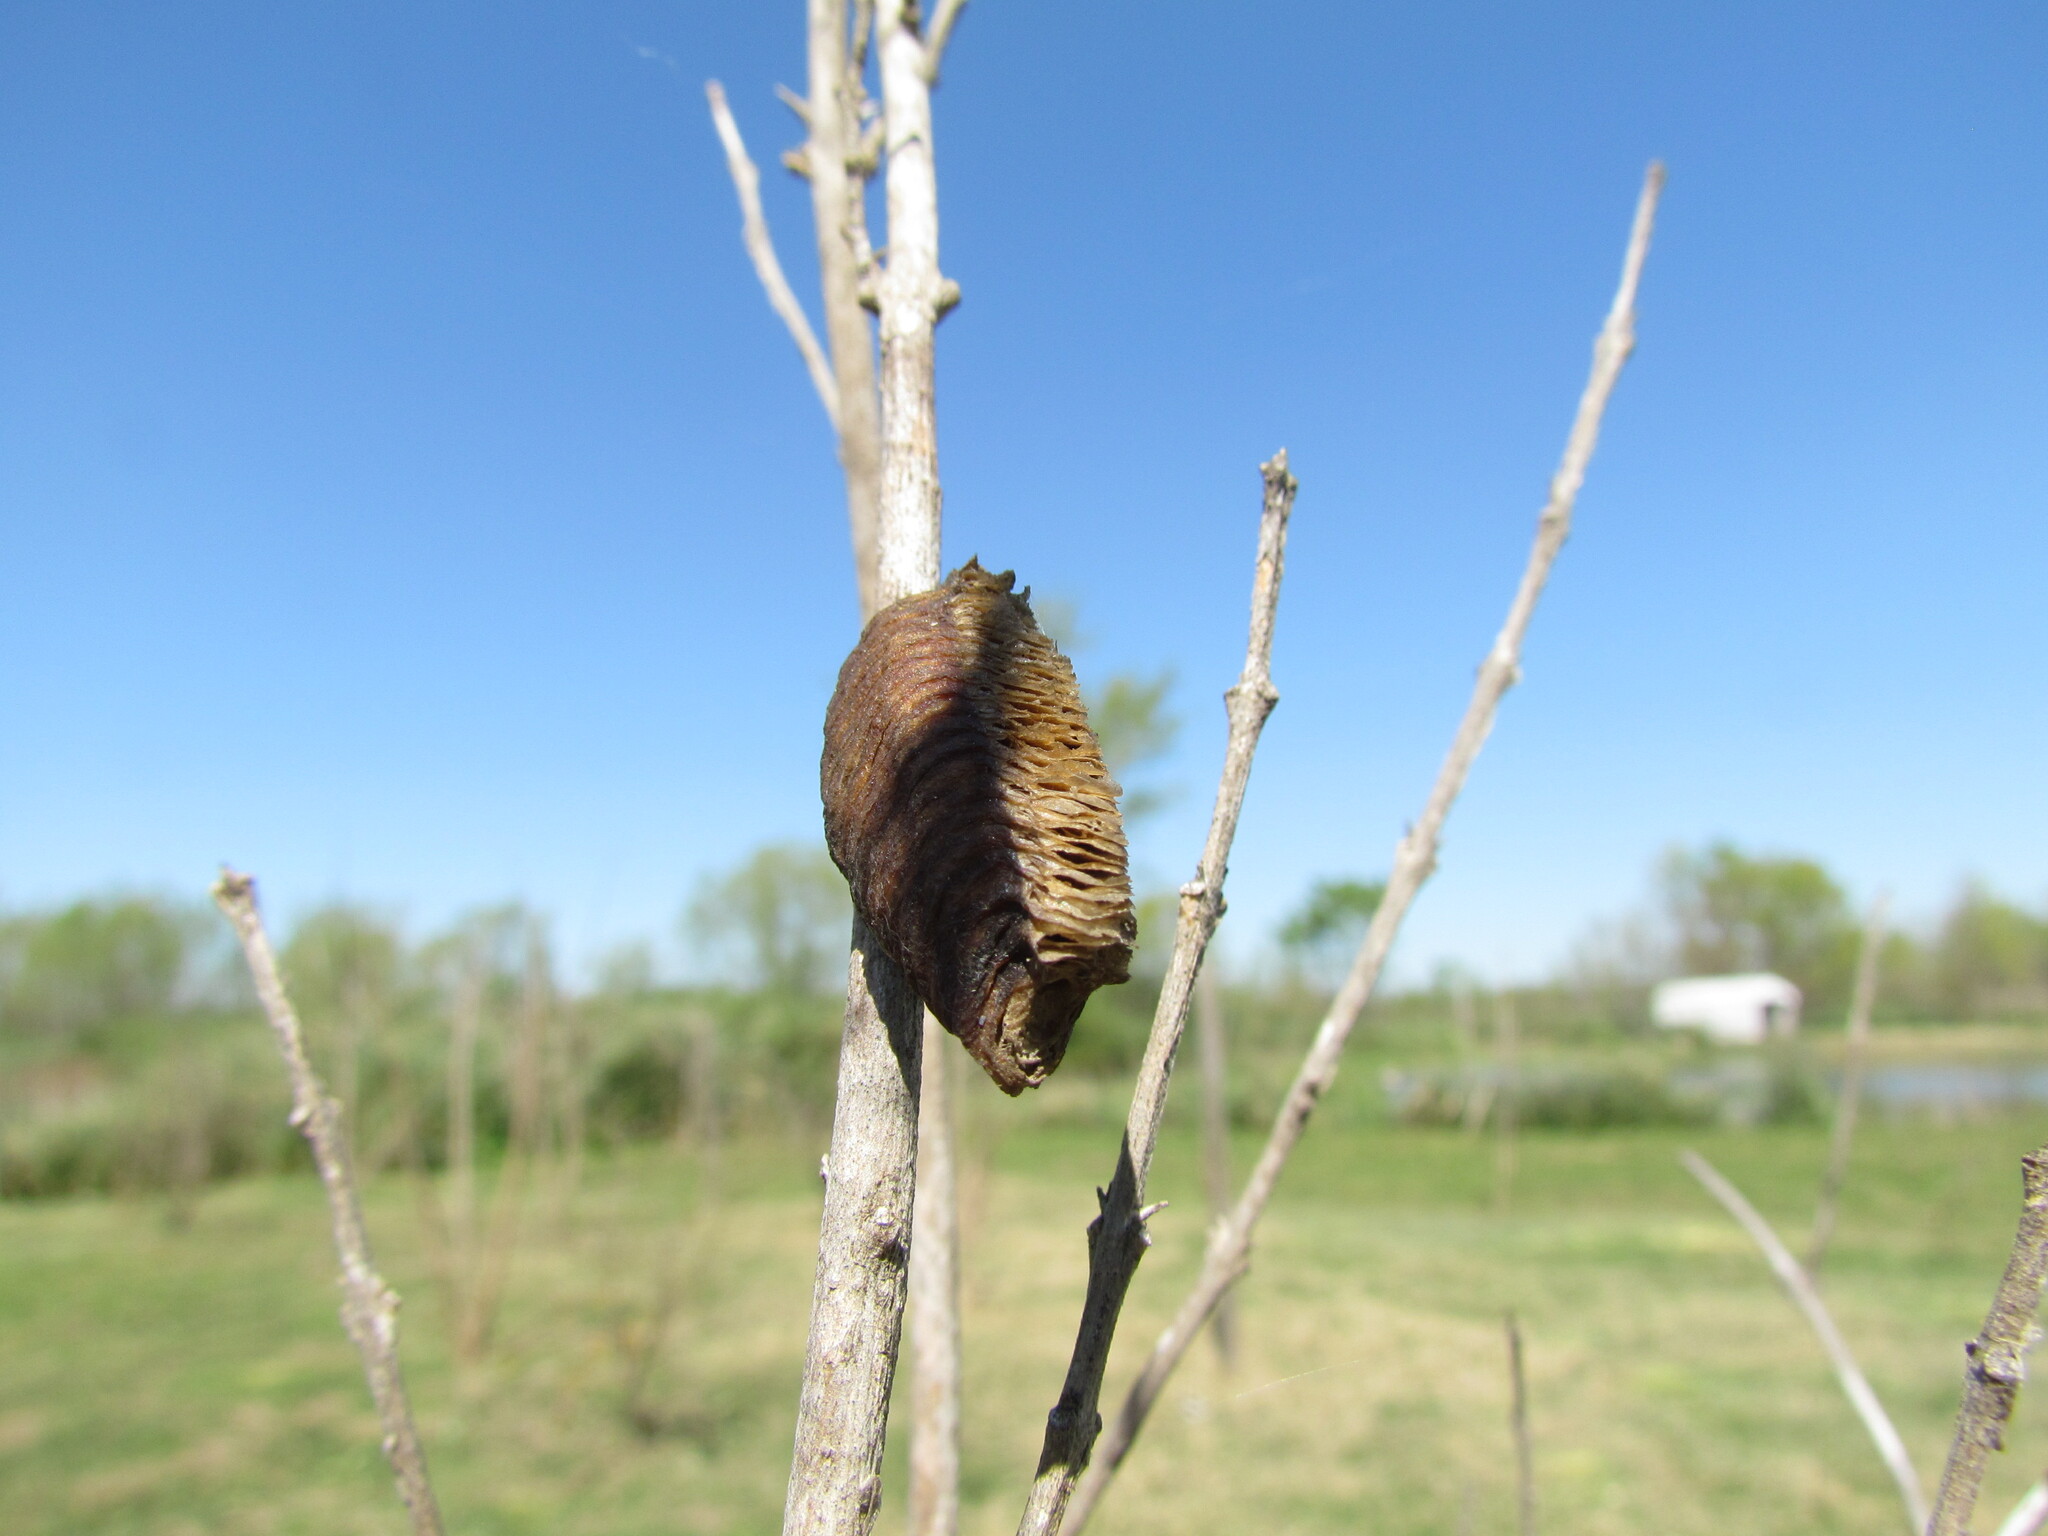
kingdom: Animalia
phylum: Arthropoda
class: Insecta
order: Mantodea
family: Mantidae
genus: Stagmatoptera
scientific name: Stagmatoptera hyaloptera
